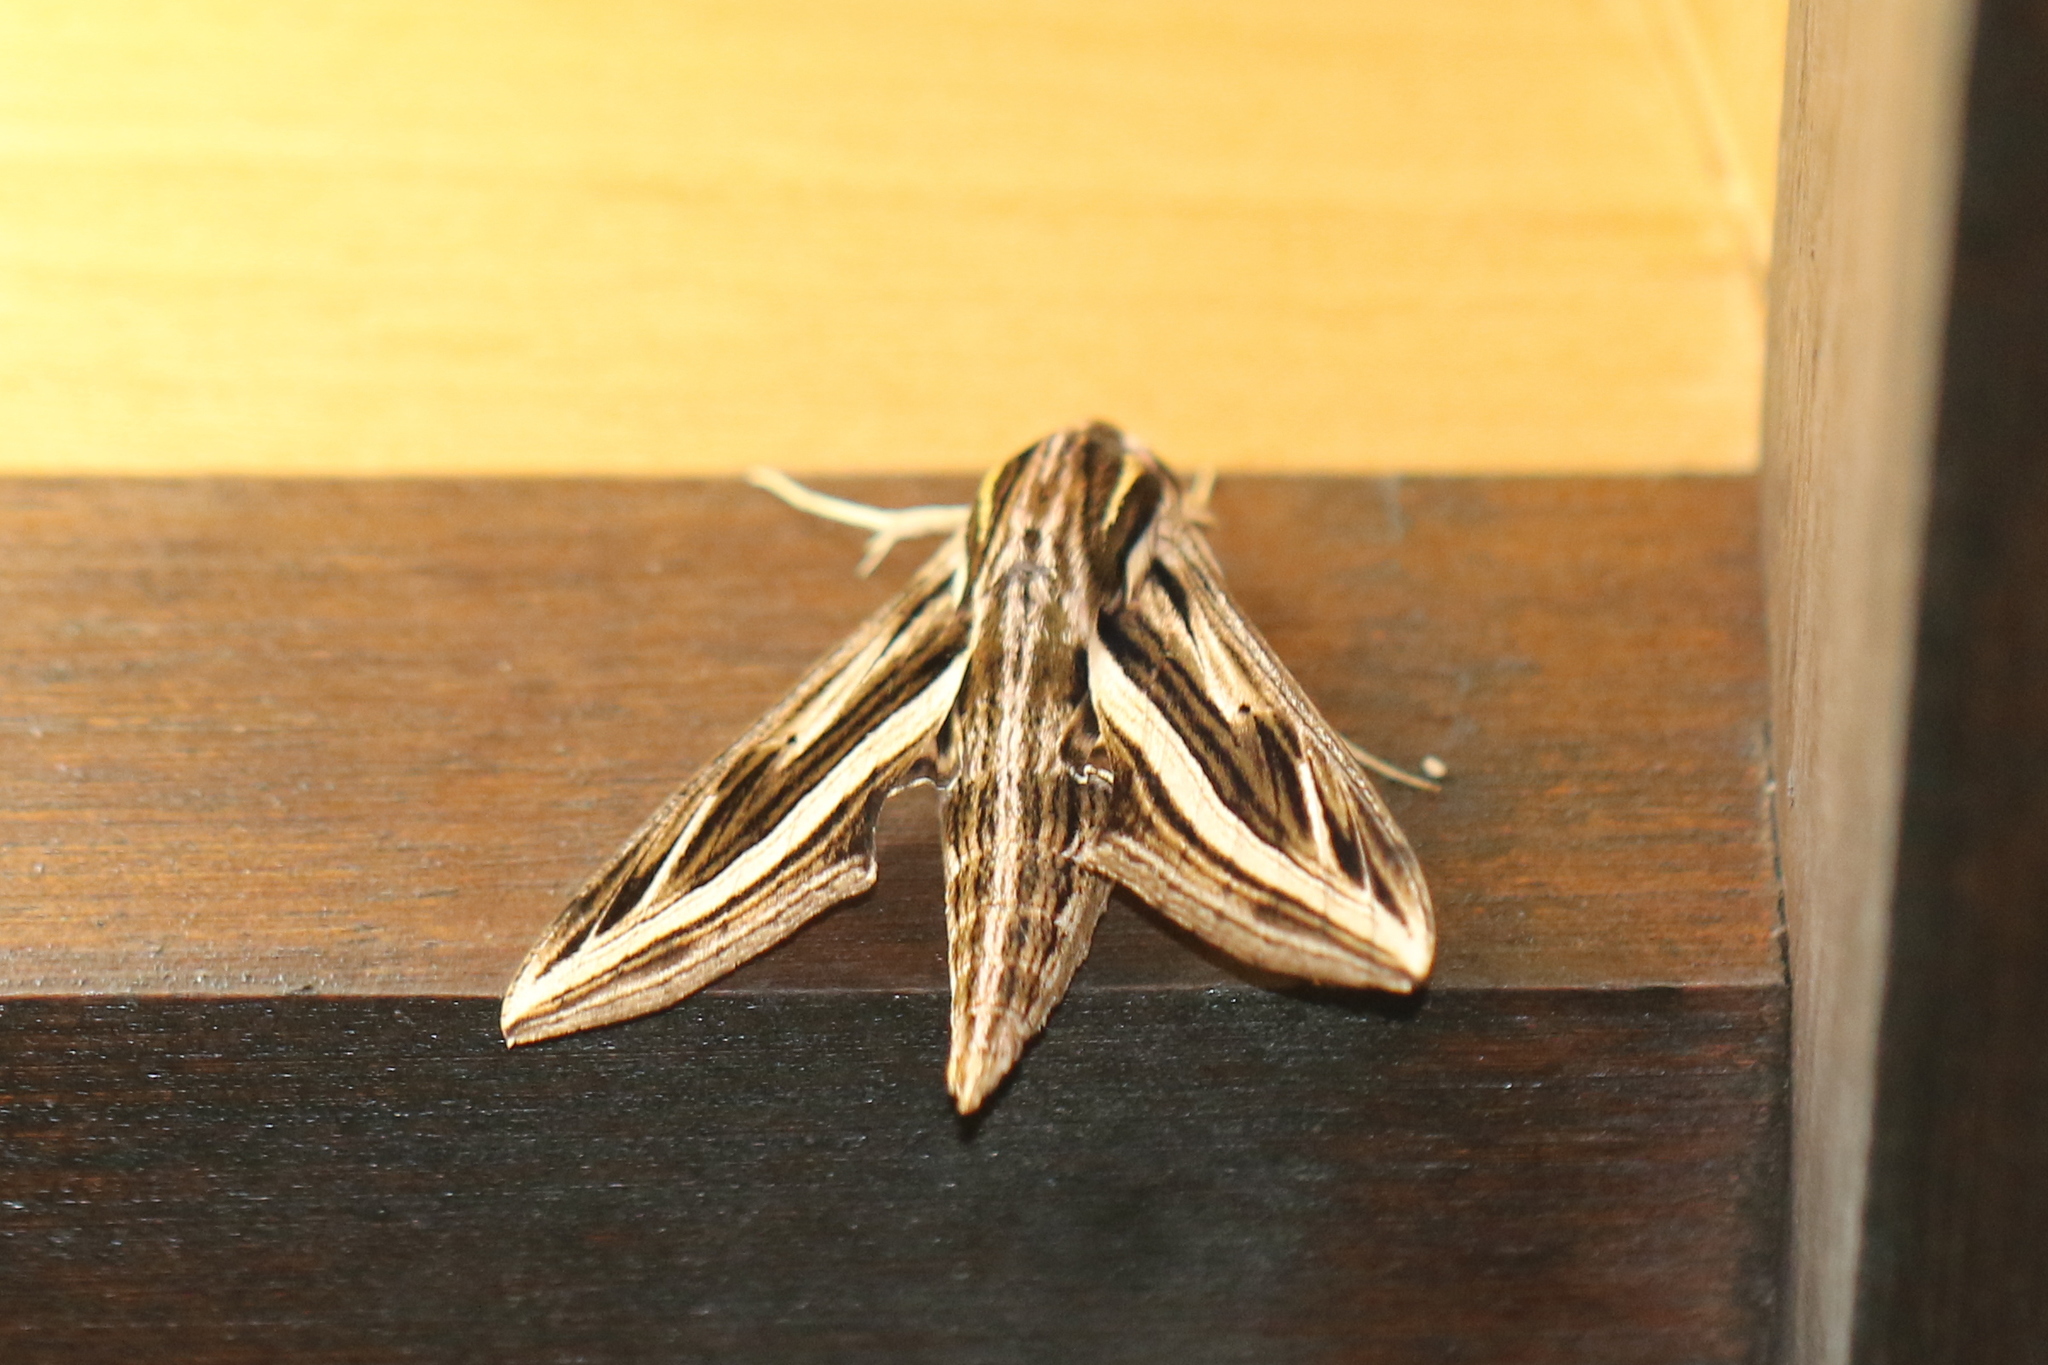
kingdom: Animalia
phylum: Arthropoda
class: Insecta
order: Lepidoptera
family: Sphingidae
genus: Hippotion
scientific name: Hippotion geryon
